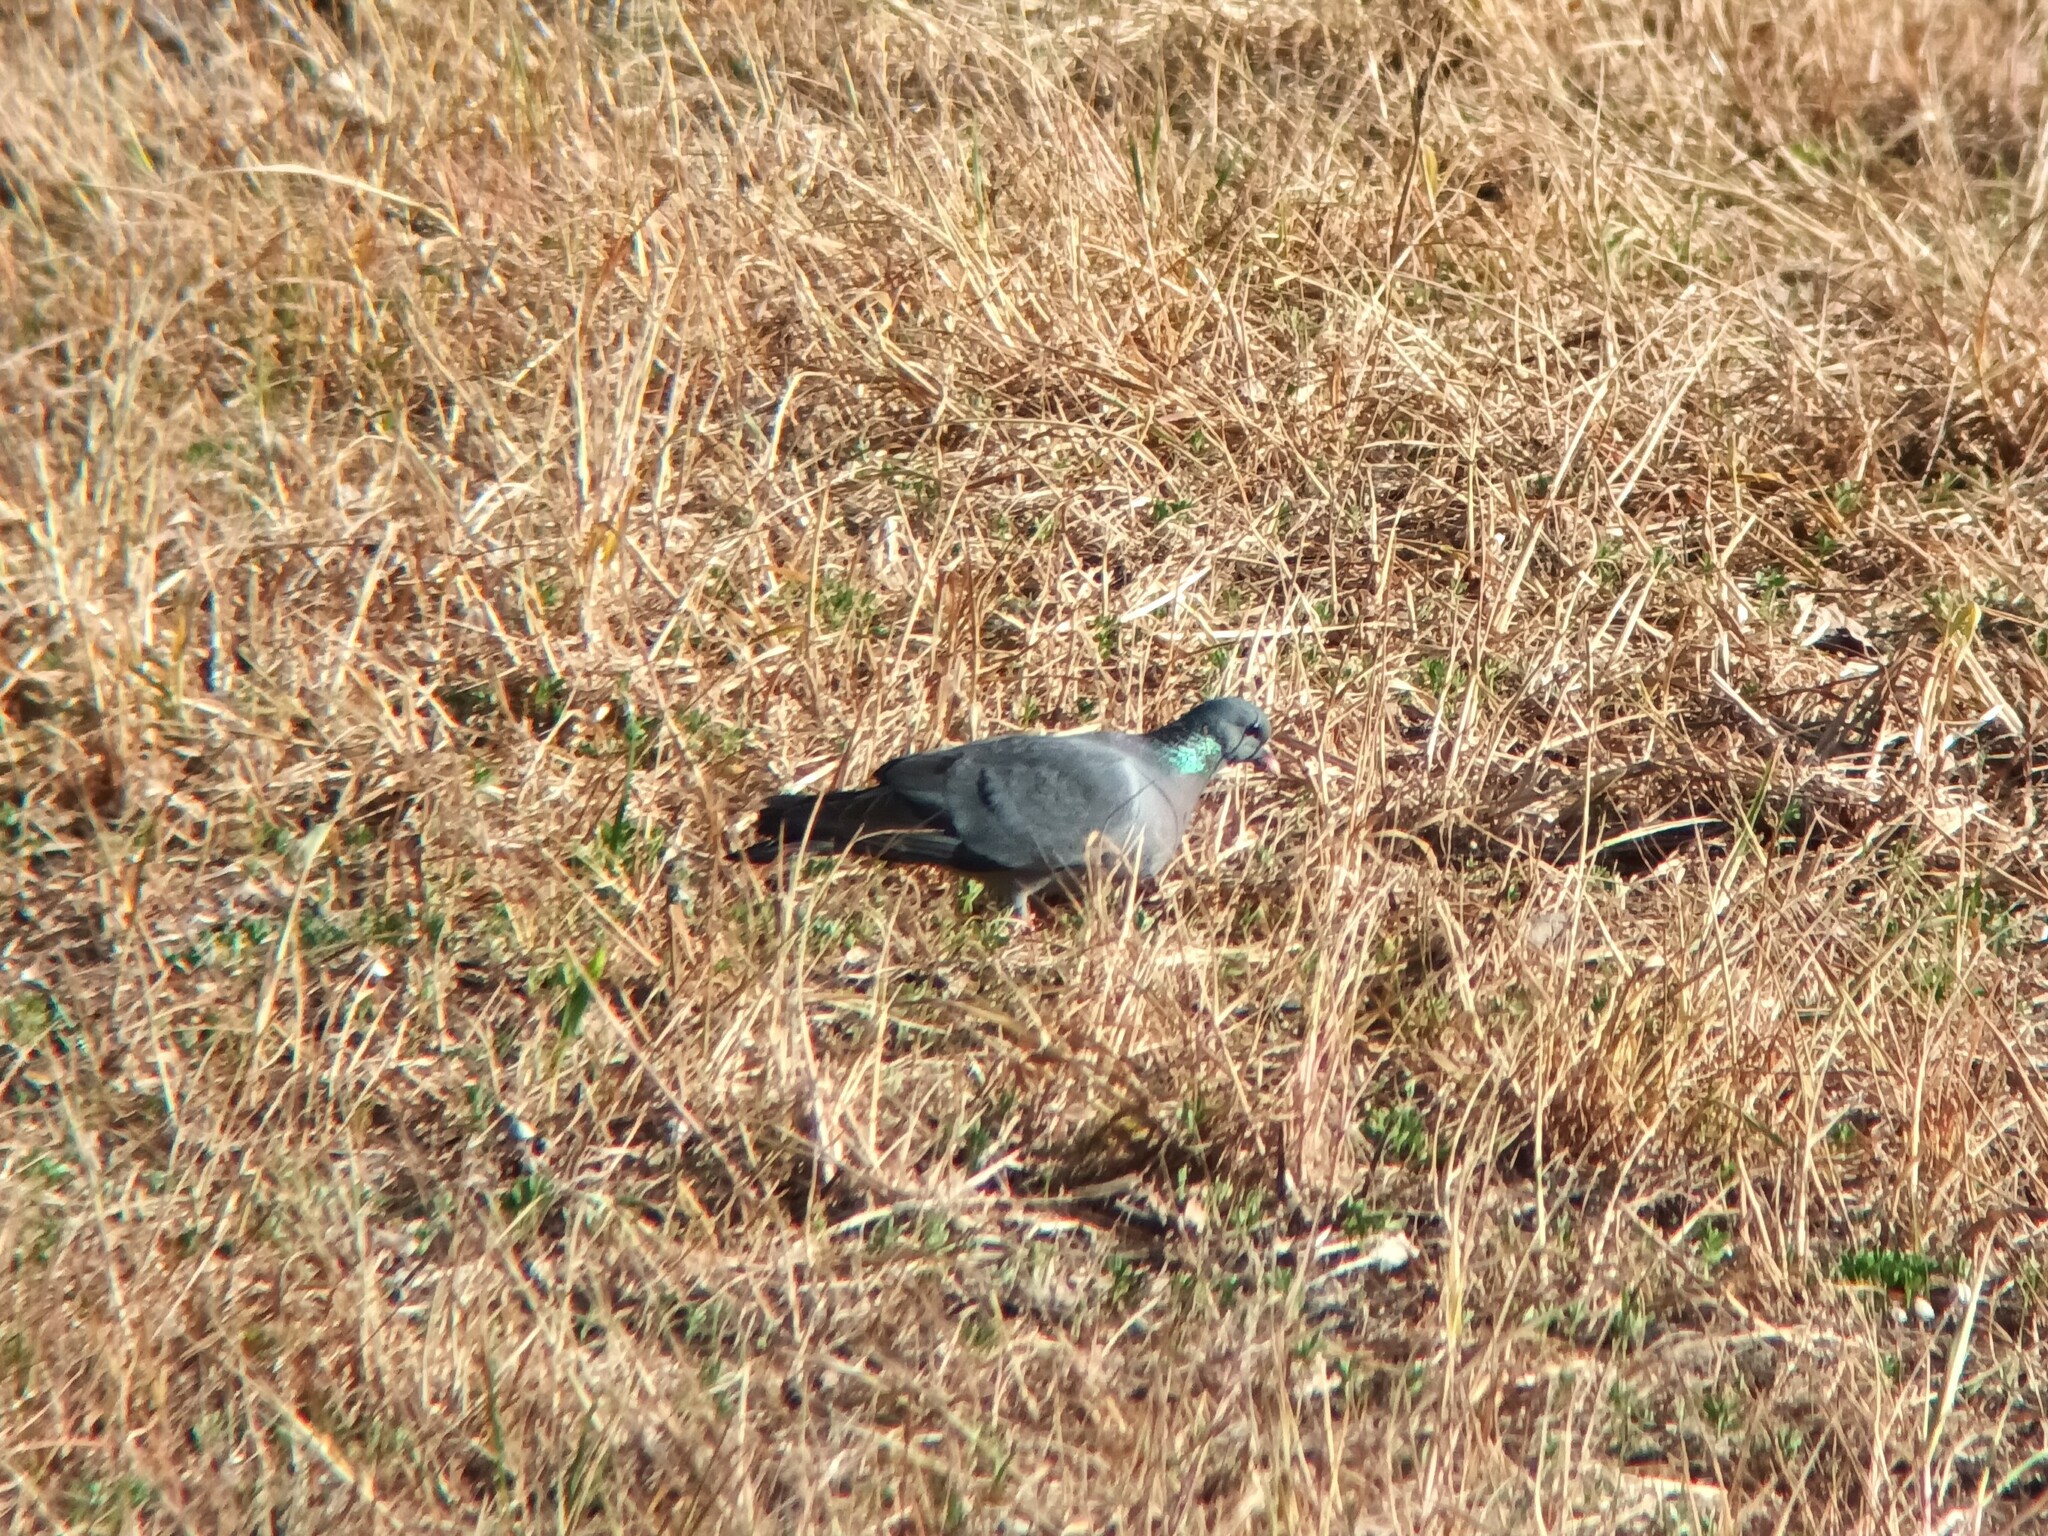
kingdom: Animalia
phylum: Chordata
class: Aves
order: Columbiformes
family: Columbidae
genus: Columba
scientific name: Columba oenas
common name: Stock dove
